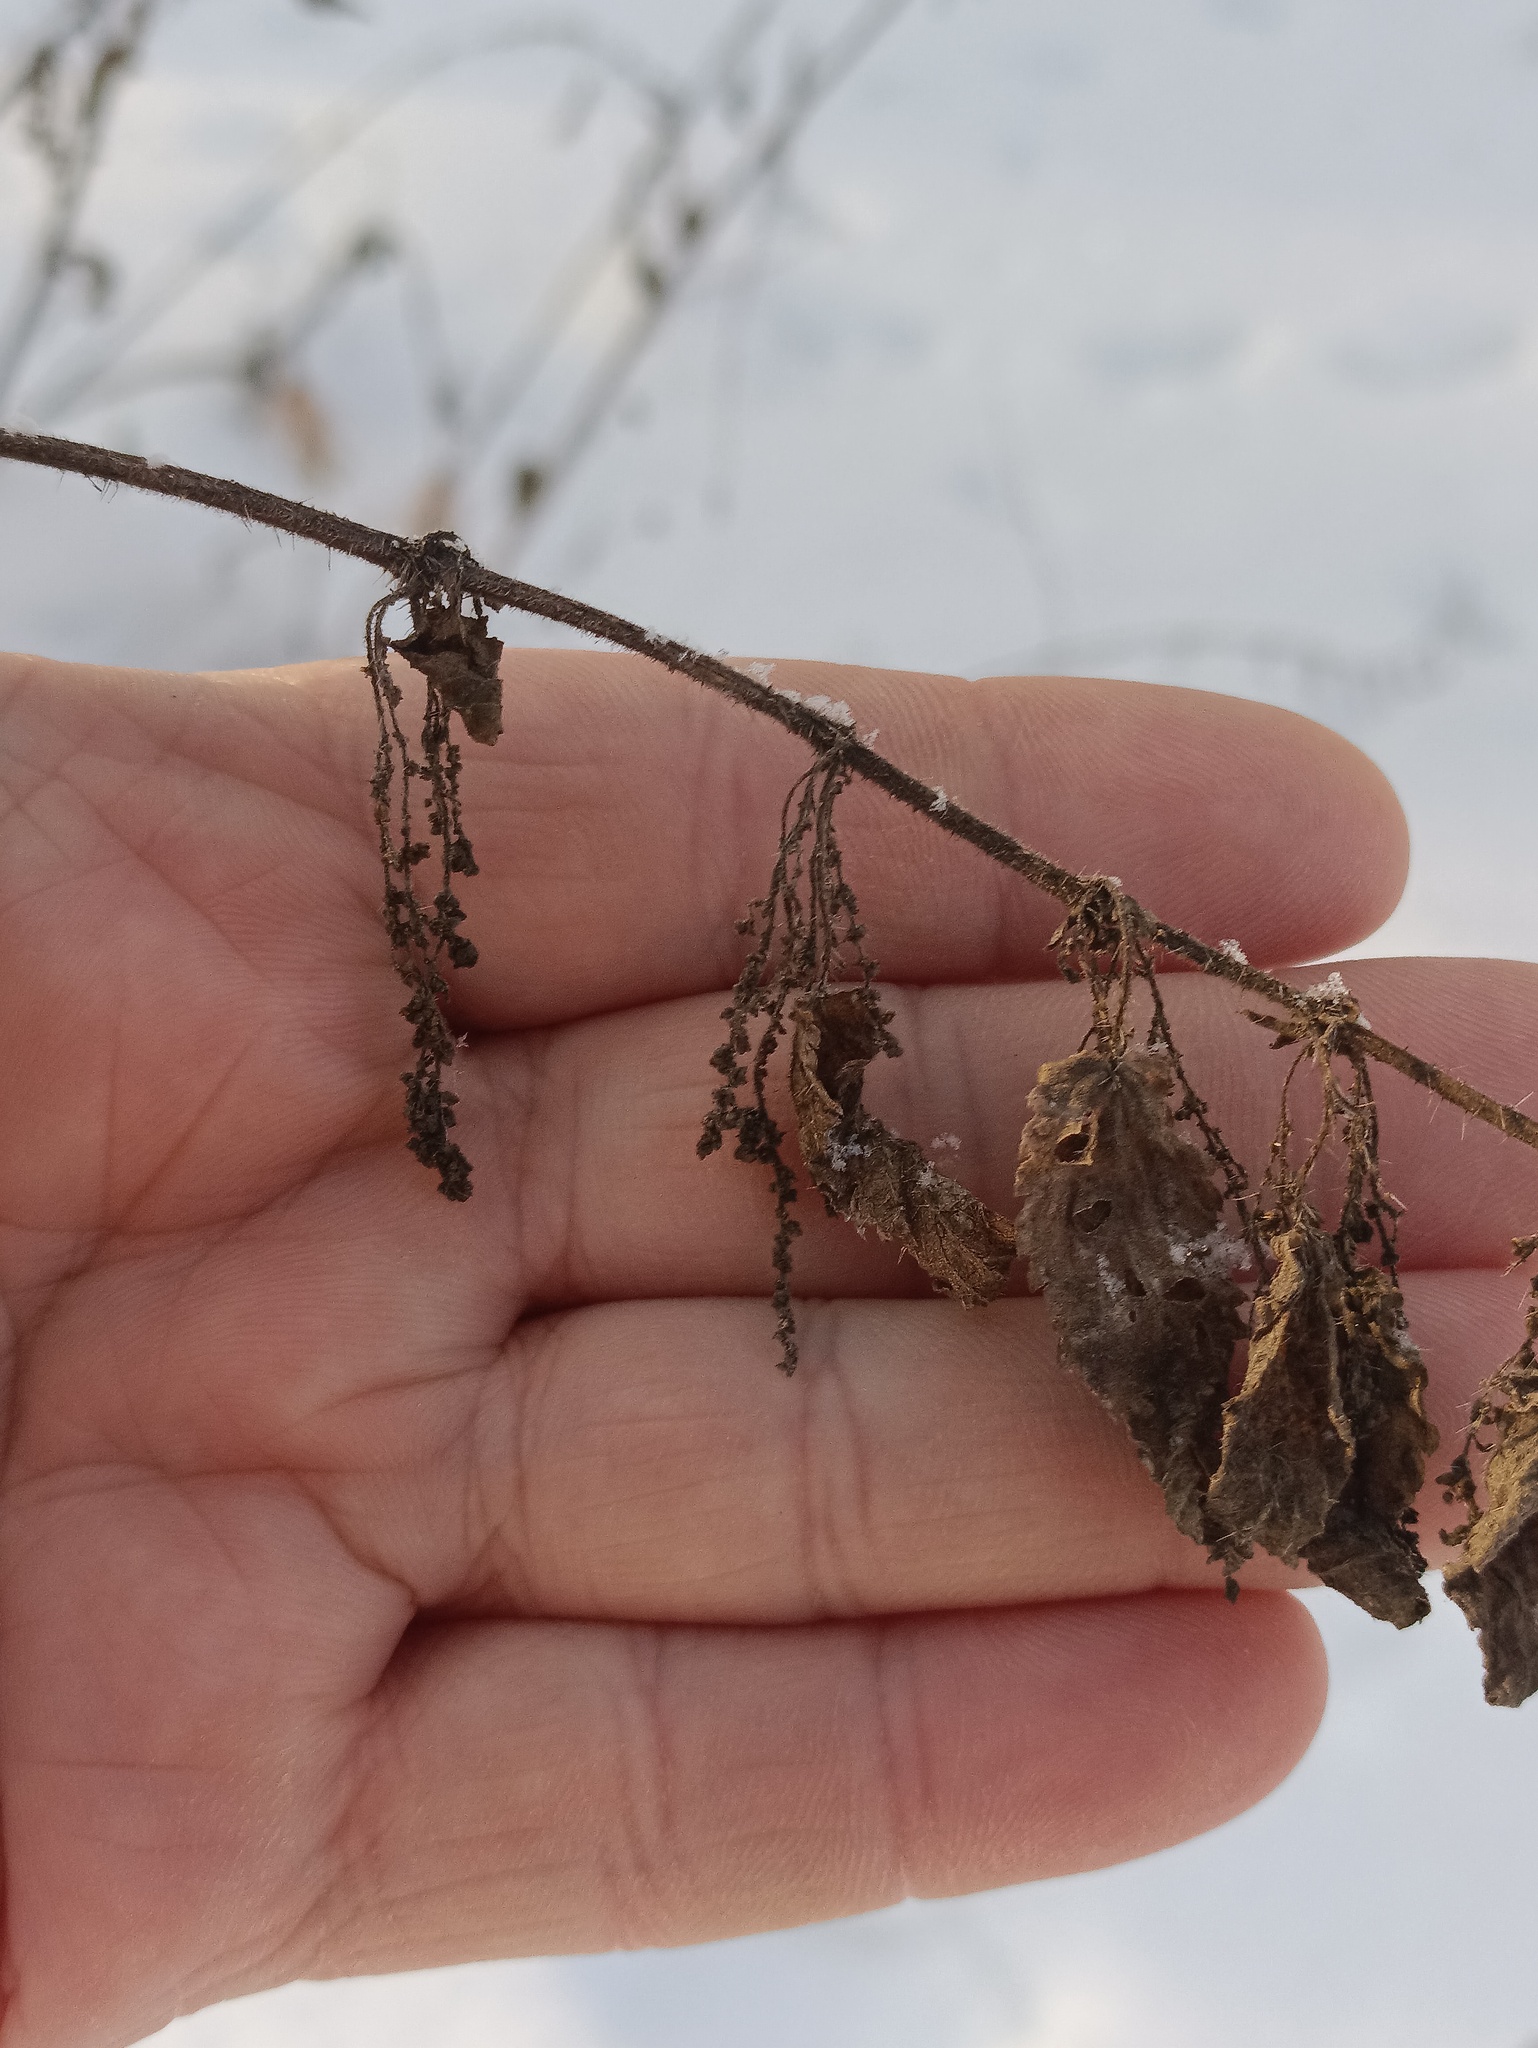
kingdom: Plantae
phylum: Tracheophyta
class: Magnoliopsida
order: Rosales
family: Urticaceae
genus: Urtica
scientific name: Urtica dioica
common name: Common nettle
